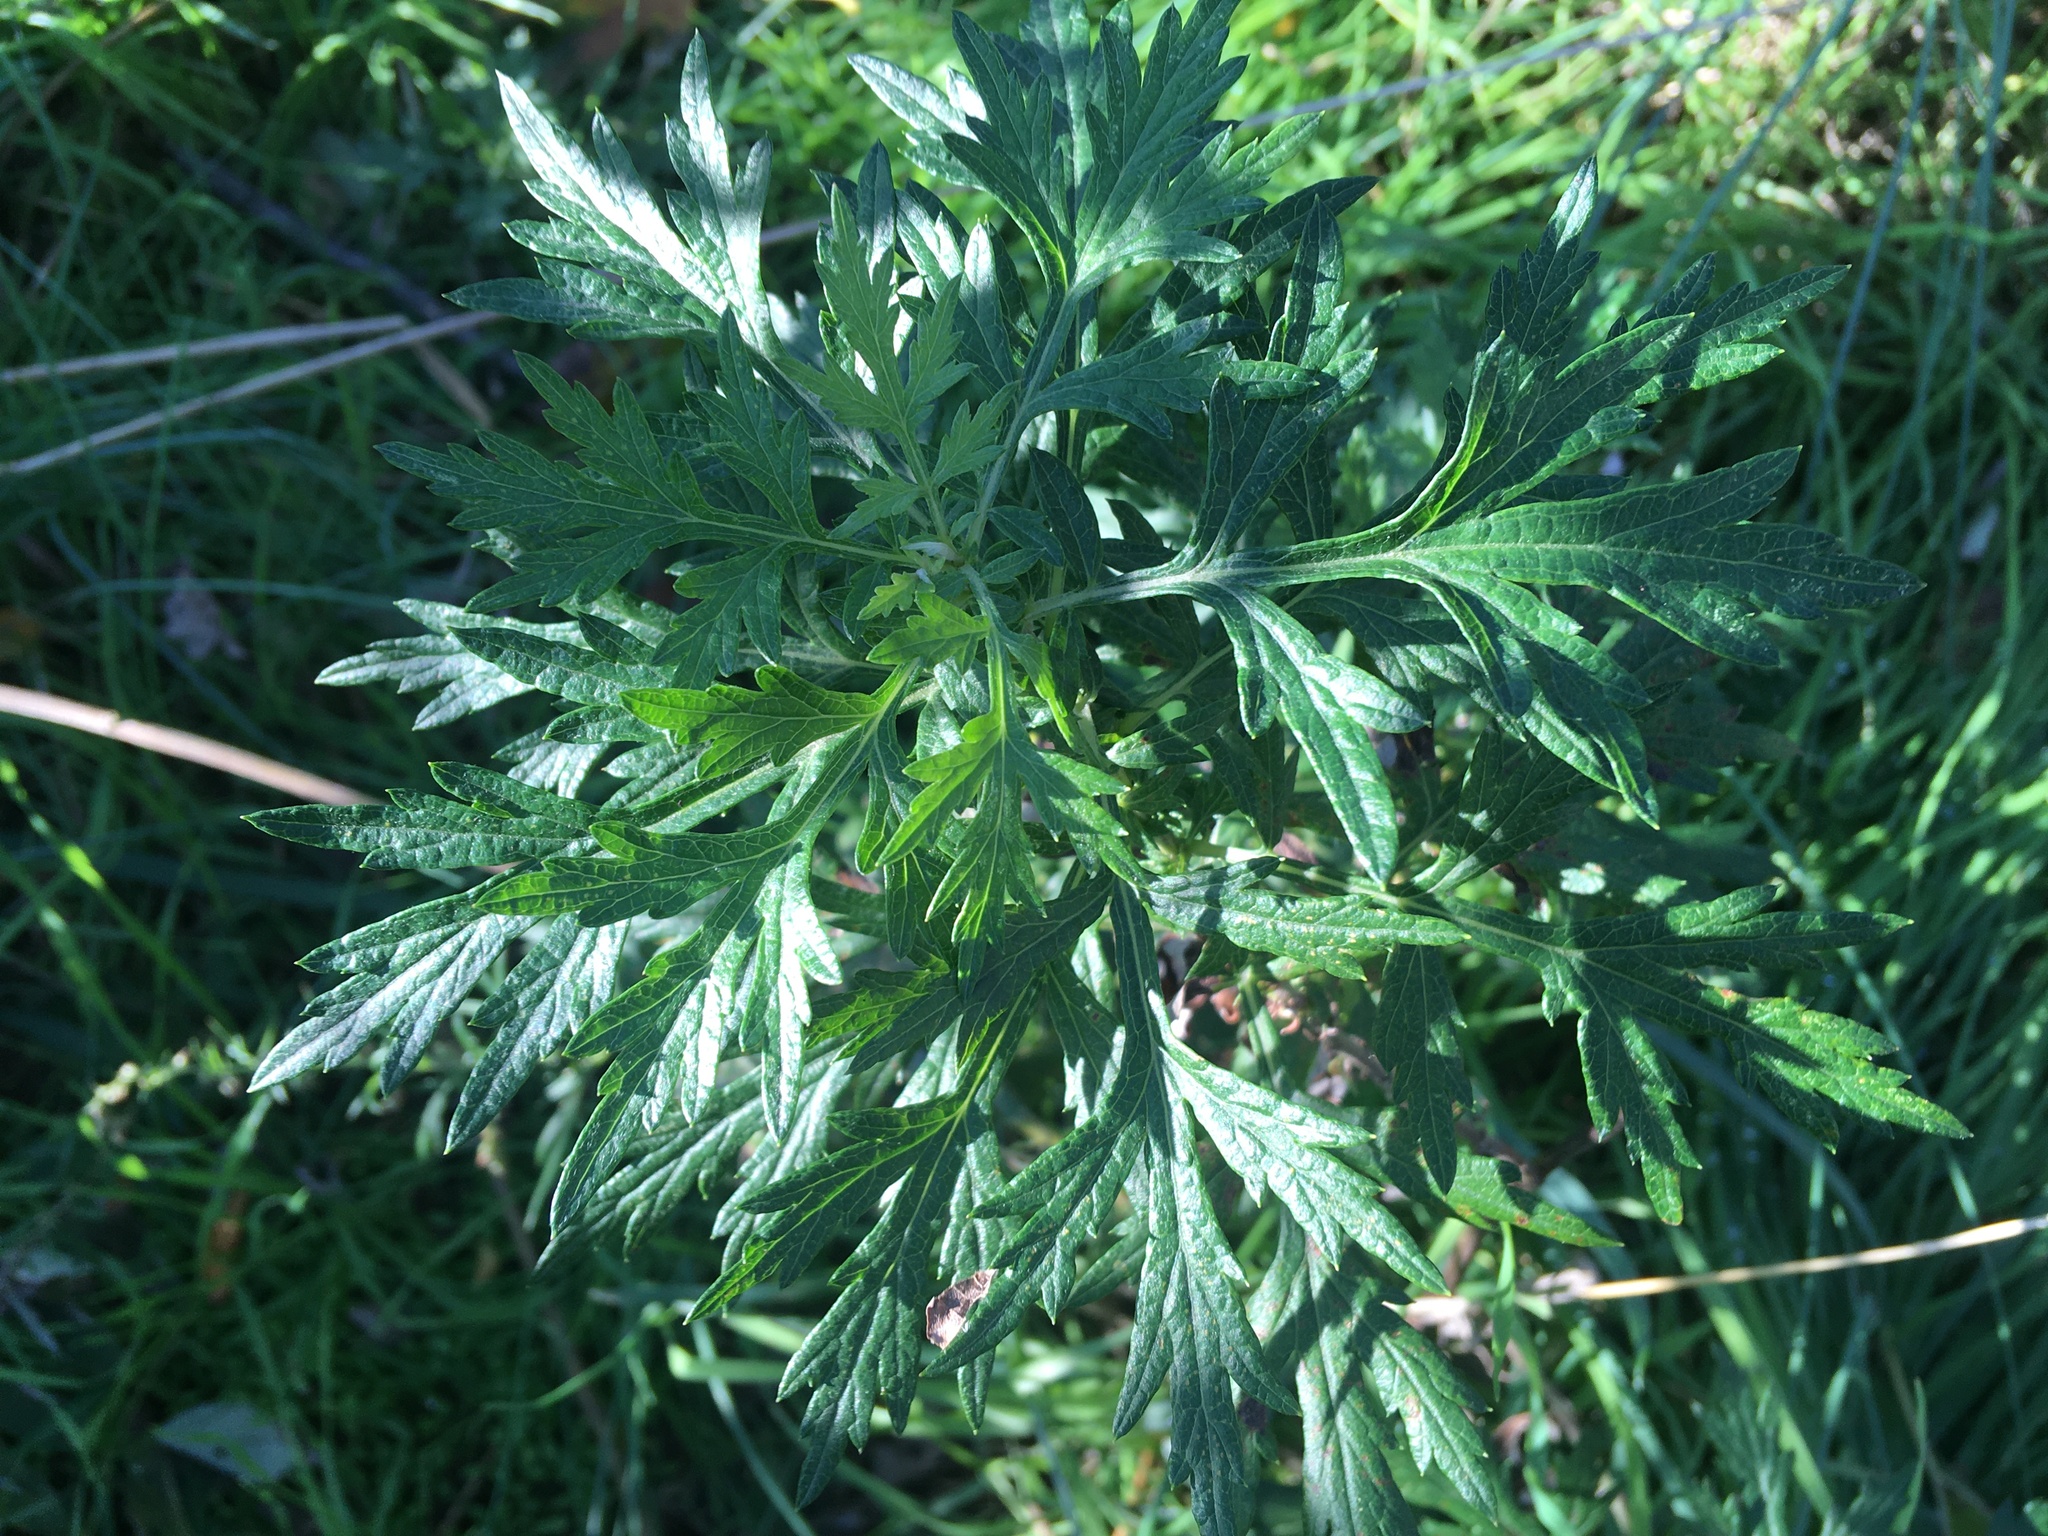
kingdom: Plantae
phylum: Tracheophyta
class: Magnoliopsida
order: Asterales
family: Asteraceae
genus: Artemisia
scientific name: Artemisia vulgaris
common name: Mugwort
